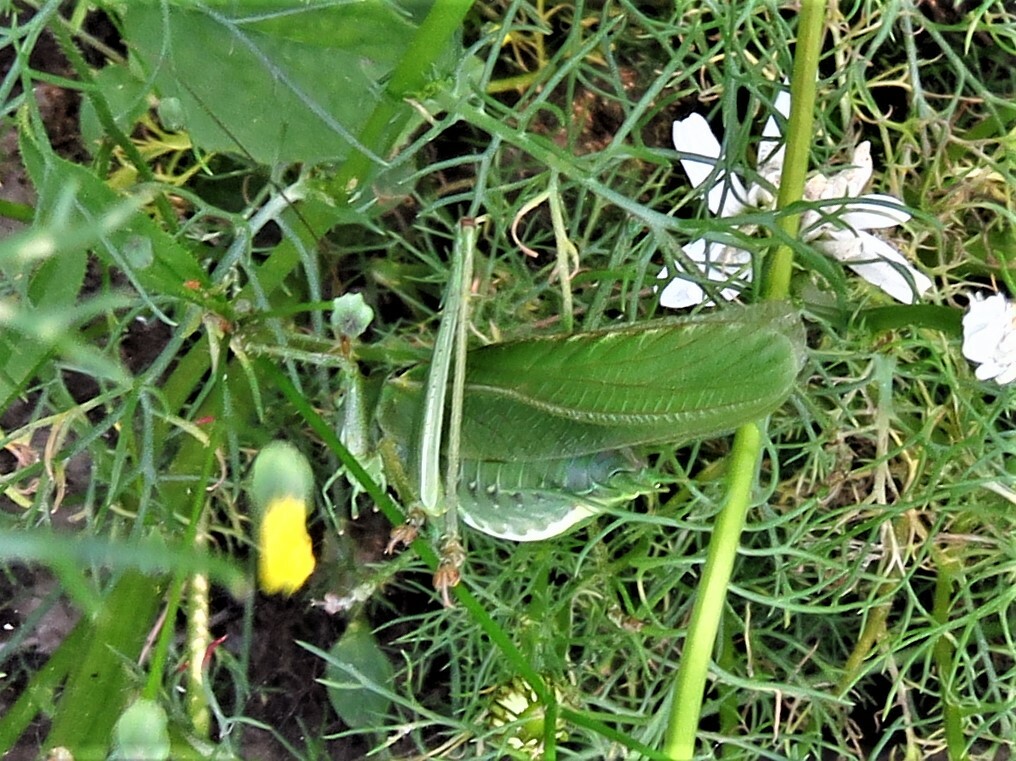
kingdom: Animalia
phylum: Arthropoda
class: Insecta
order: Orthoptera
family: Tettigoniidae
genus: Tettigonia
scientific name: Tettigonia viridissima
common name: Great green bush-cricket
